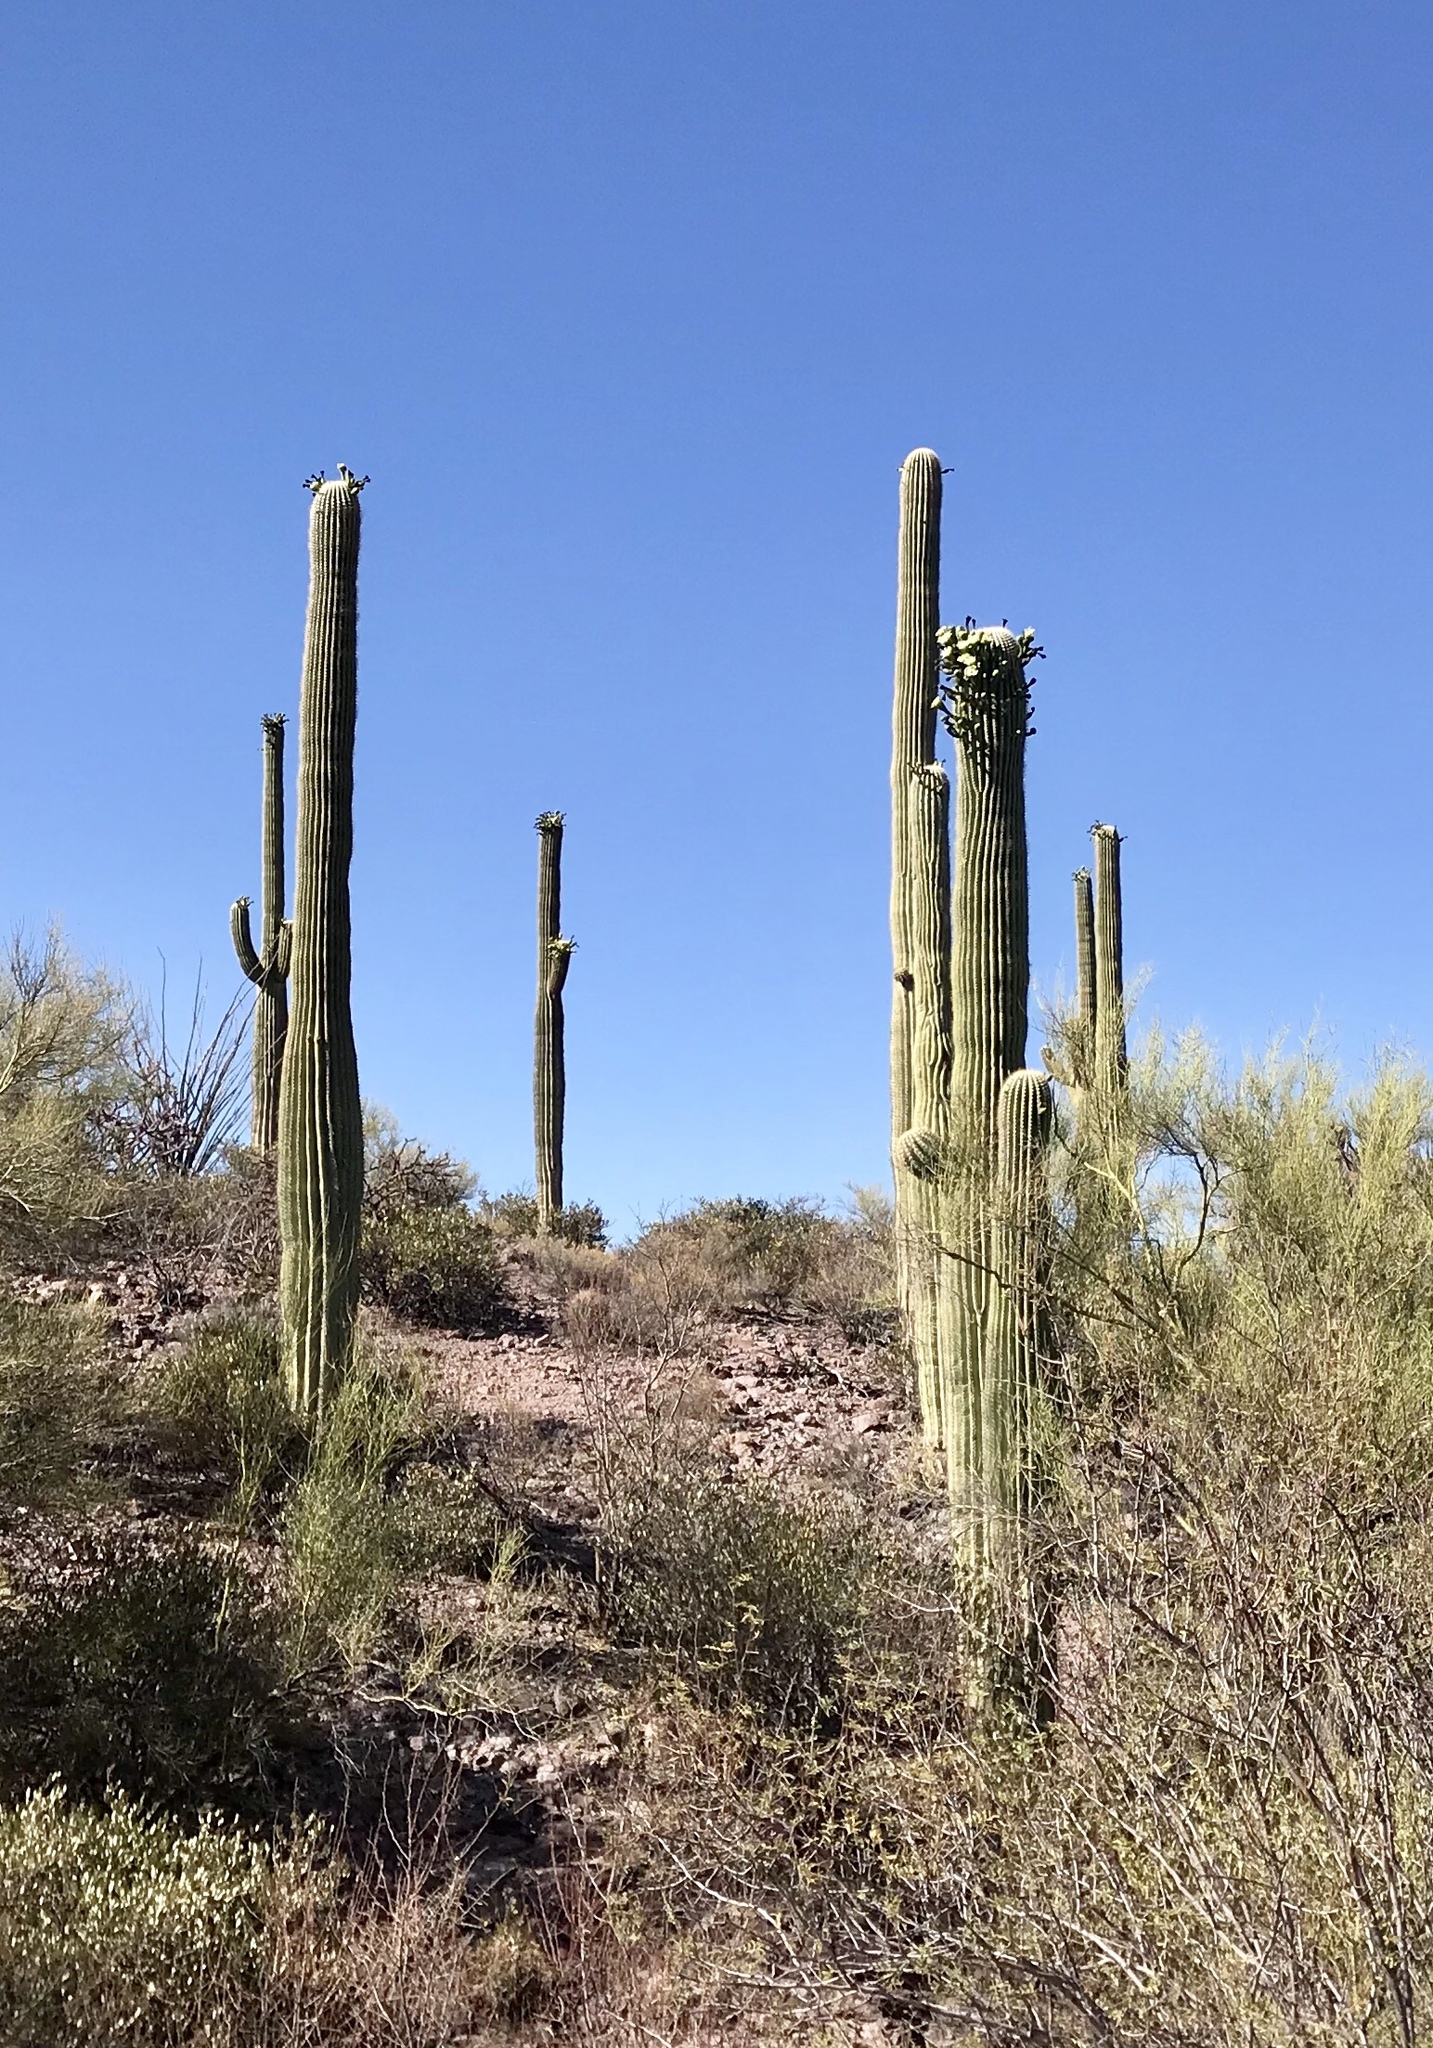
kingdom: Plantae
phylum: Tracheophyta
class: Magnoliopsida
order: Caryophyllales
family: Cactaceae
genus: Carnegiea
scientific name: Carnegiea gigantea
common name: Saguaro
